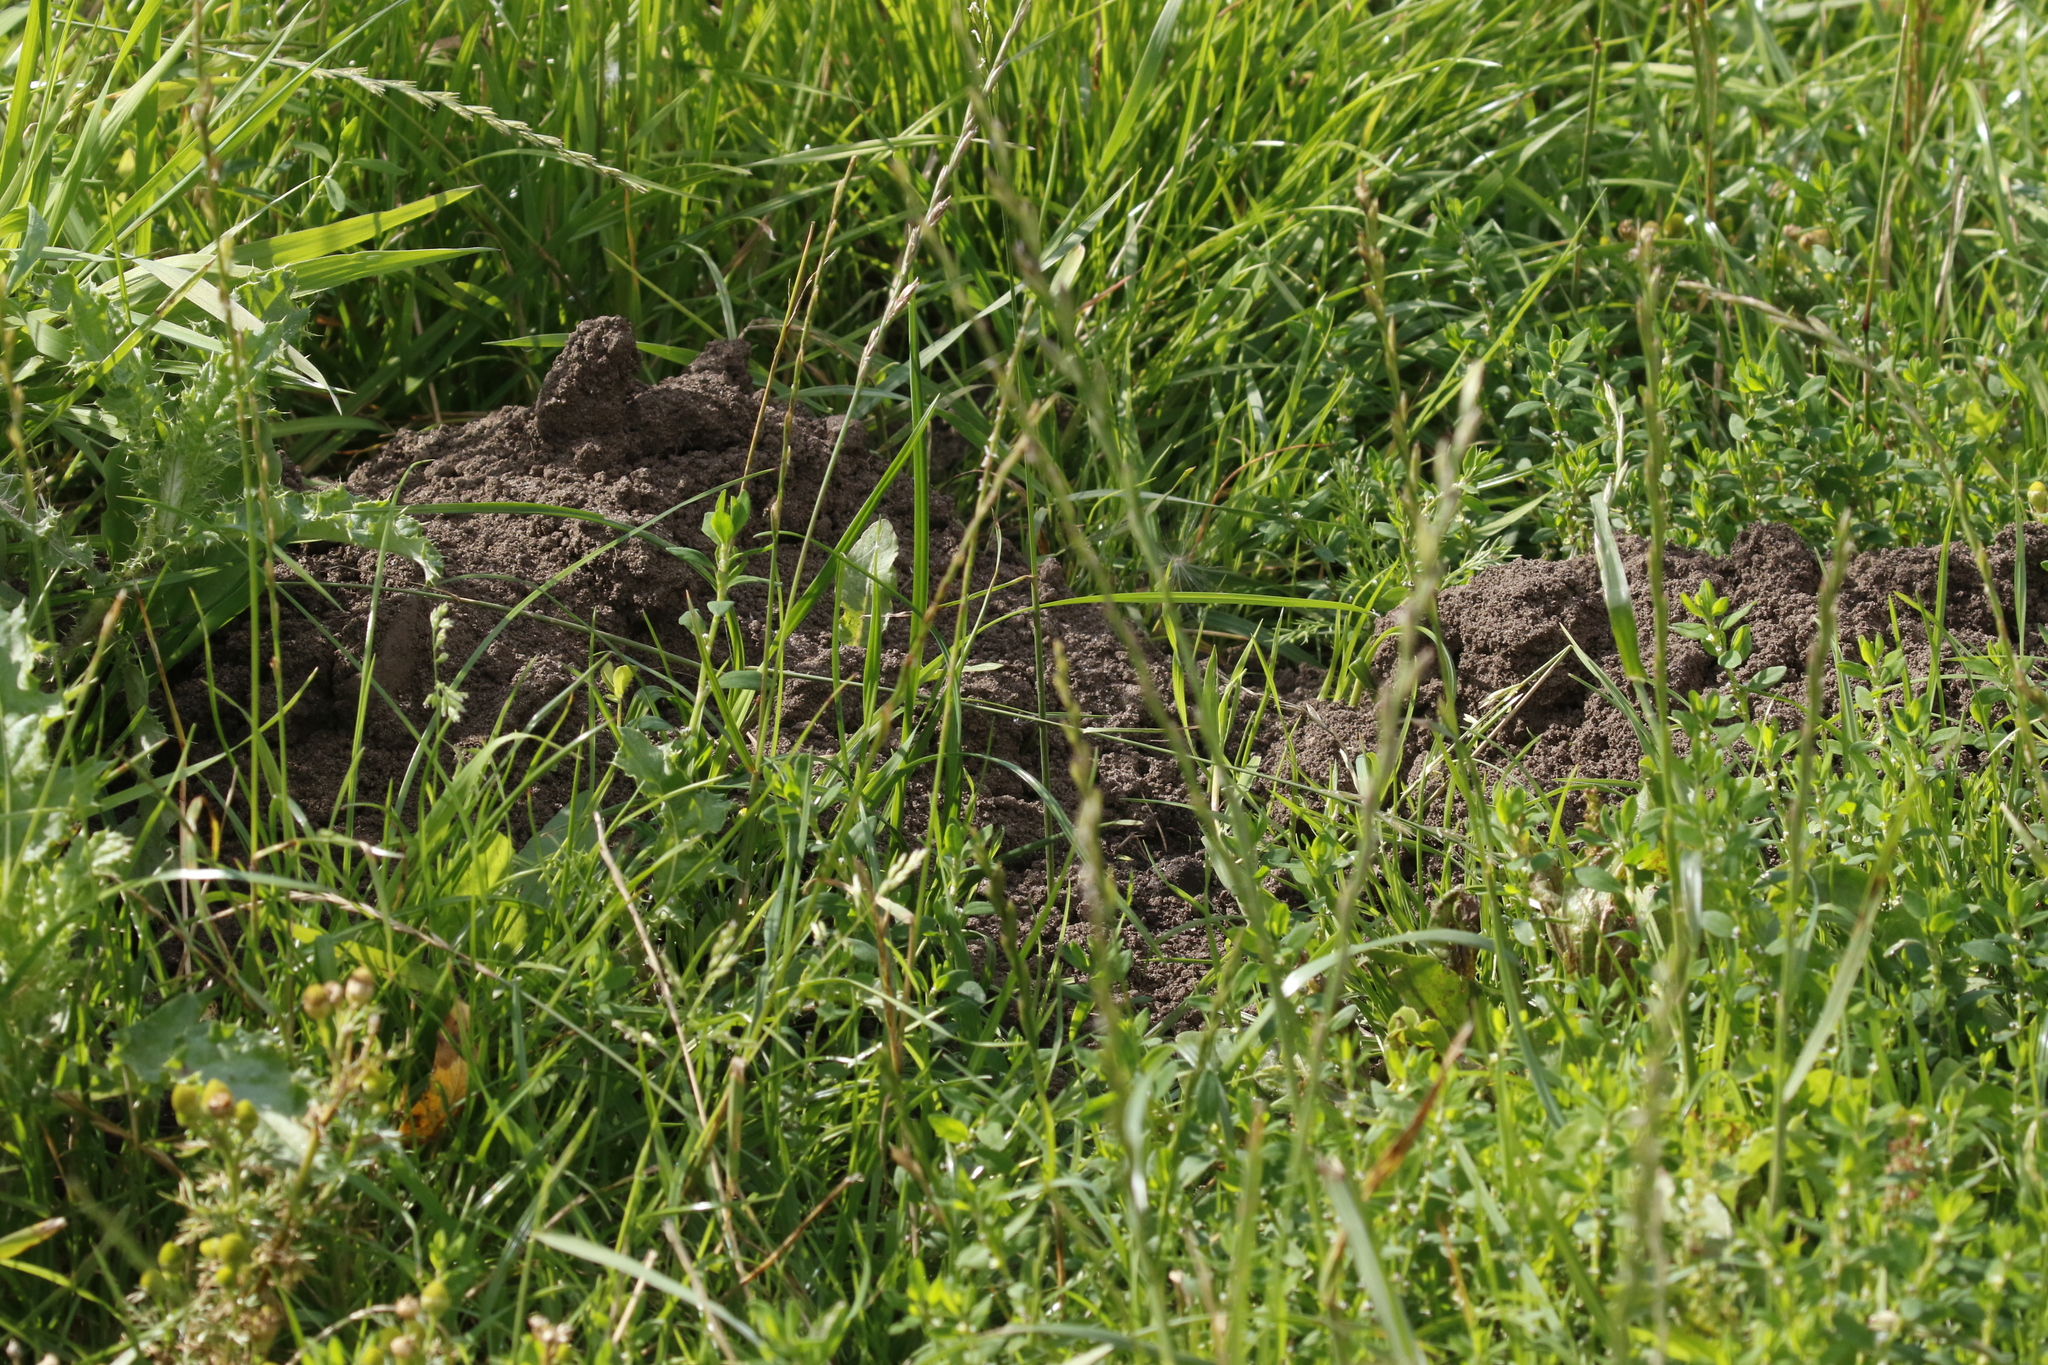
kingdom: Animalia
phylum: Chordata
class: Mammalia
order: Soricomorpha
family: Talpidae
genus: Talpa
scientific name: Talpa europaea
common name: European mole
